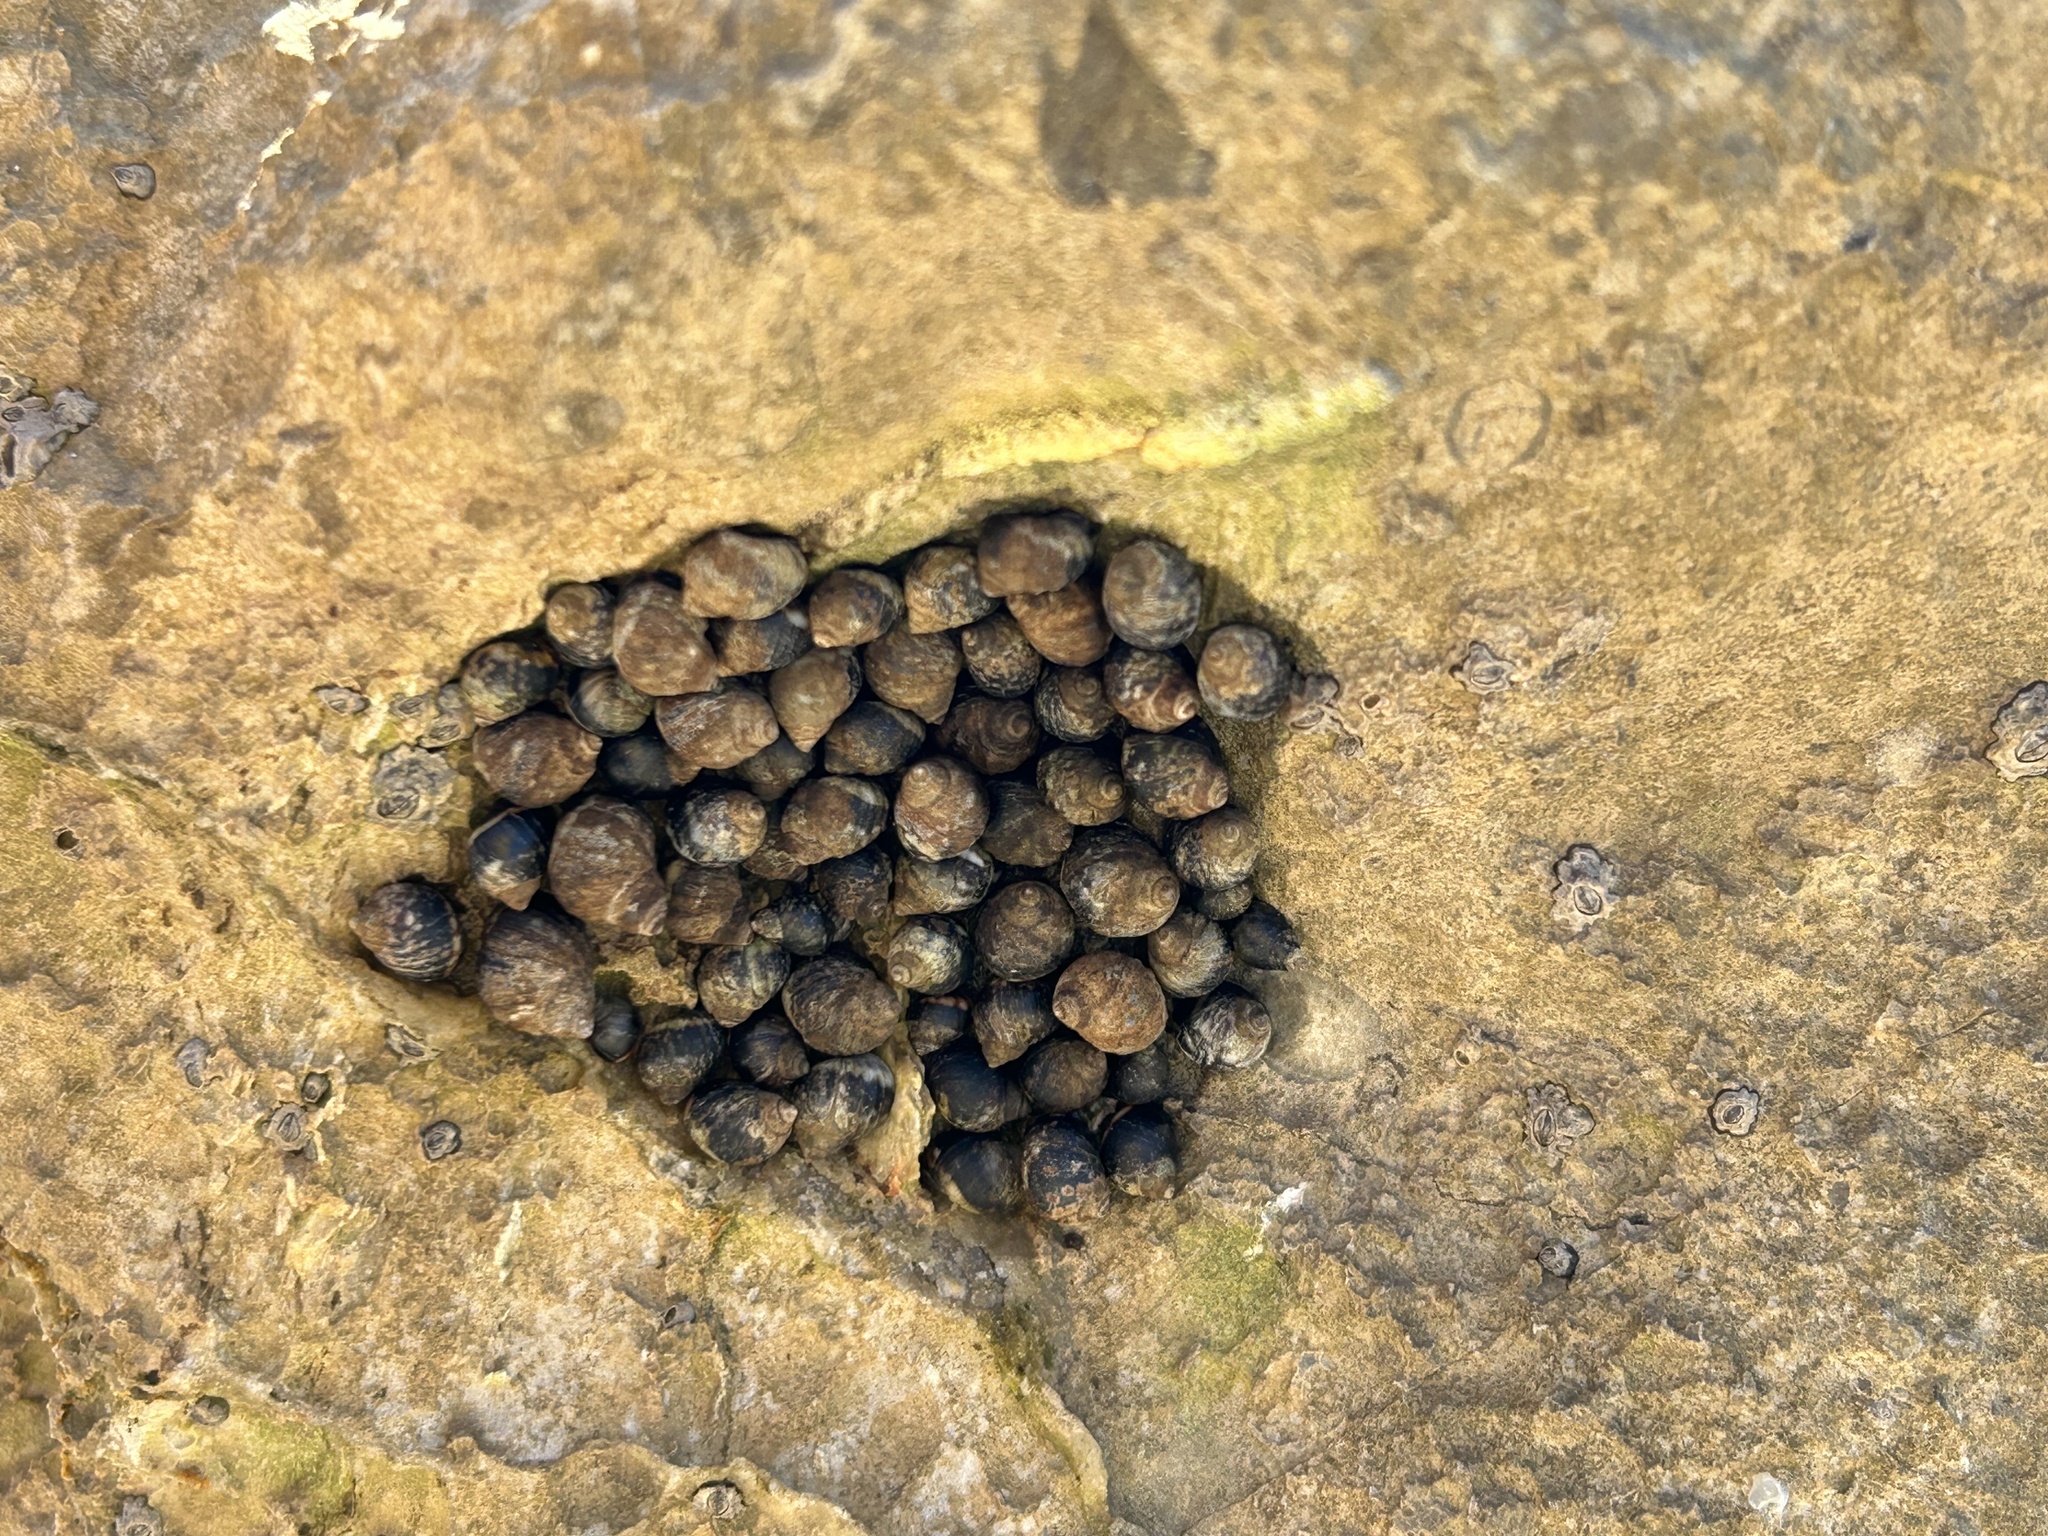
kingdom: Animalia
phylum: Mollusca
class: Gastropoda
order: Littorinimorpha
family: Littorinidae
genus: Littorina
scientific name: Littorina keenae
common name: Eroded periwinkle
